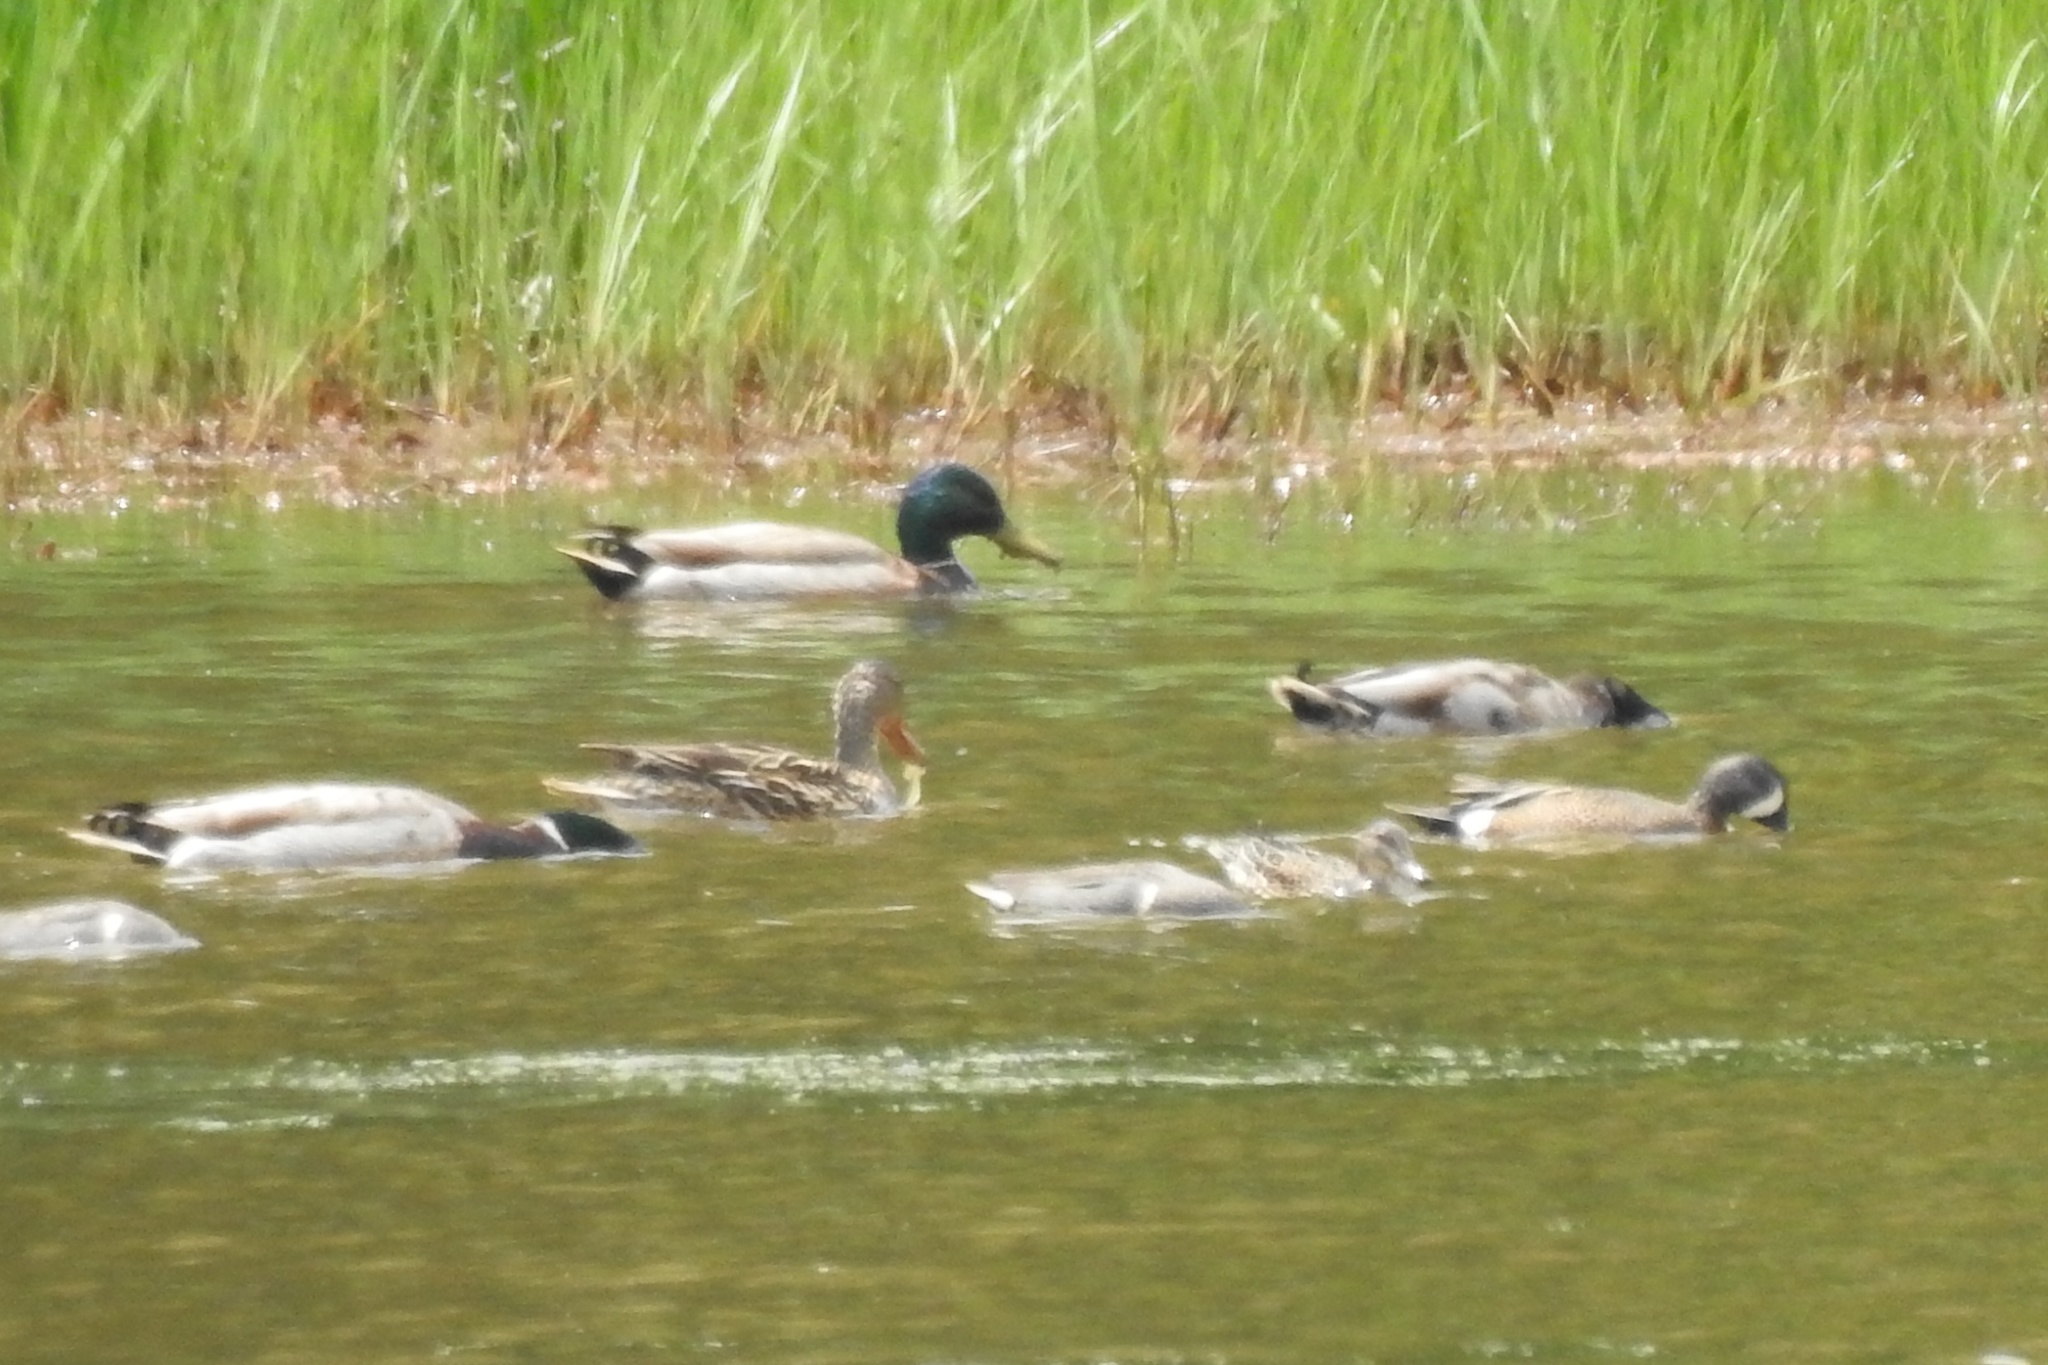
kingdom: Animalia
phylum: Chordata
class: Aves
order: Anseriformes
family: Anatidae
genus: Anas
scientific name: Anas platyrhynchos
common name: Mallard
